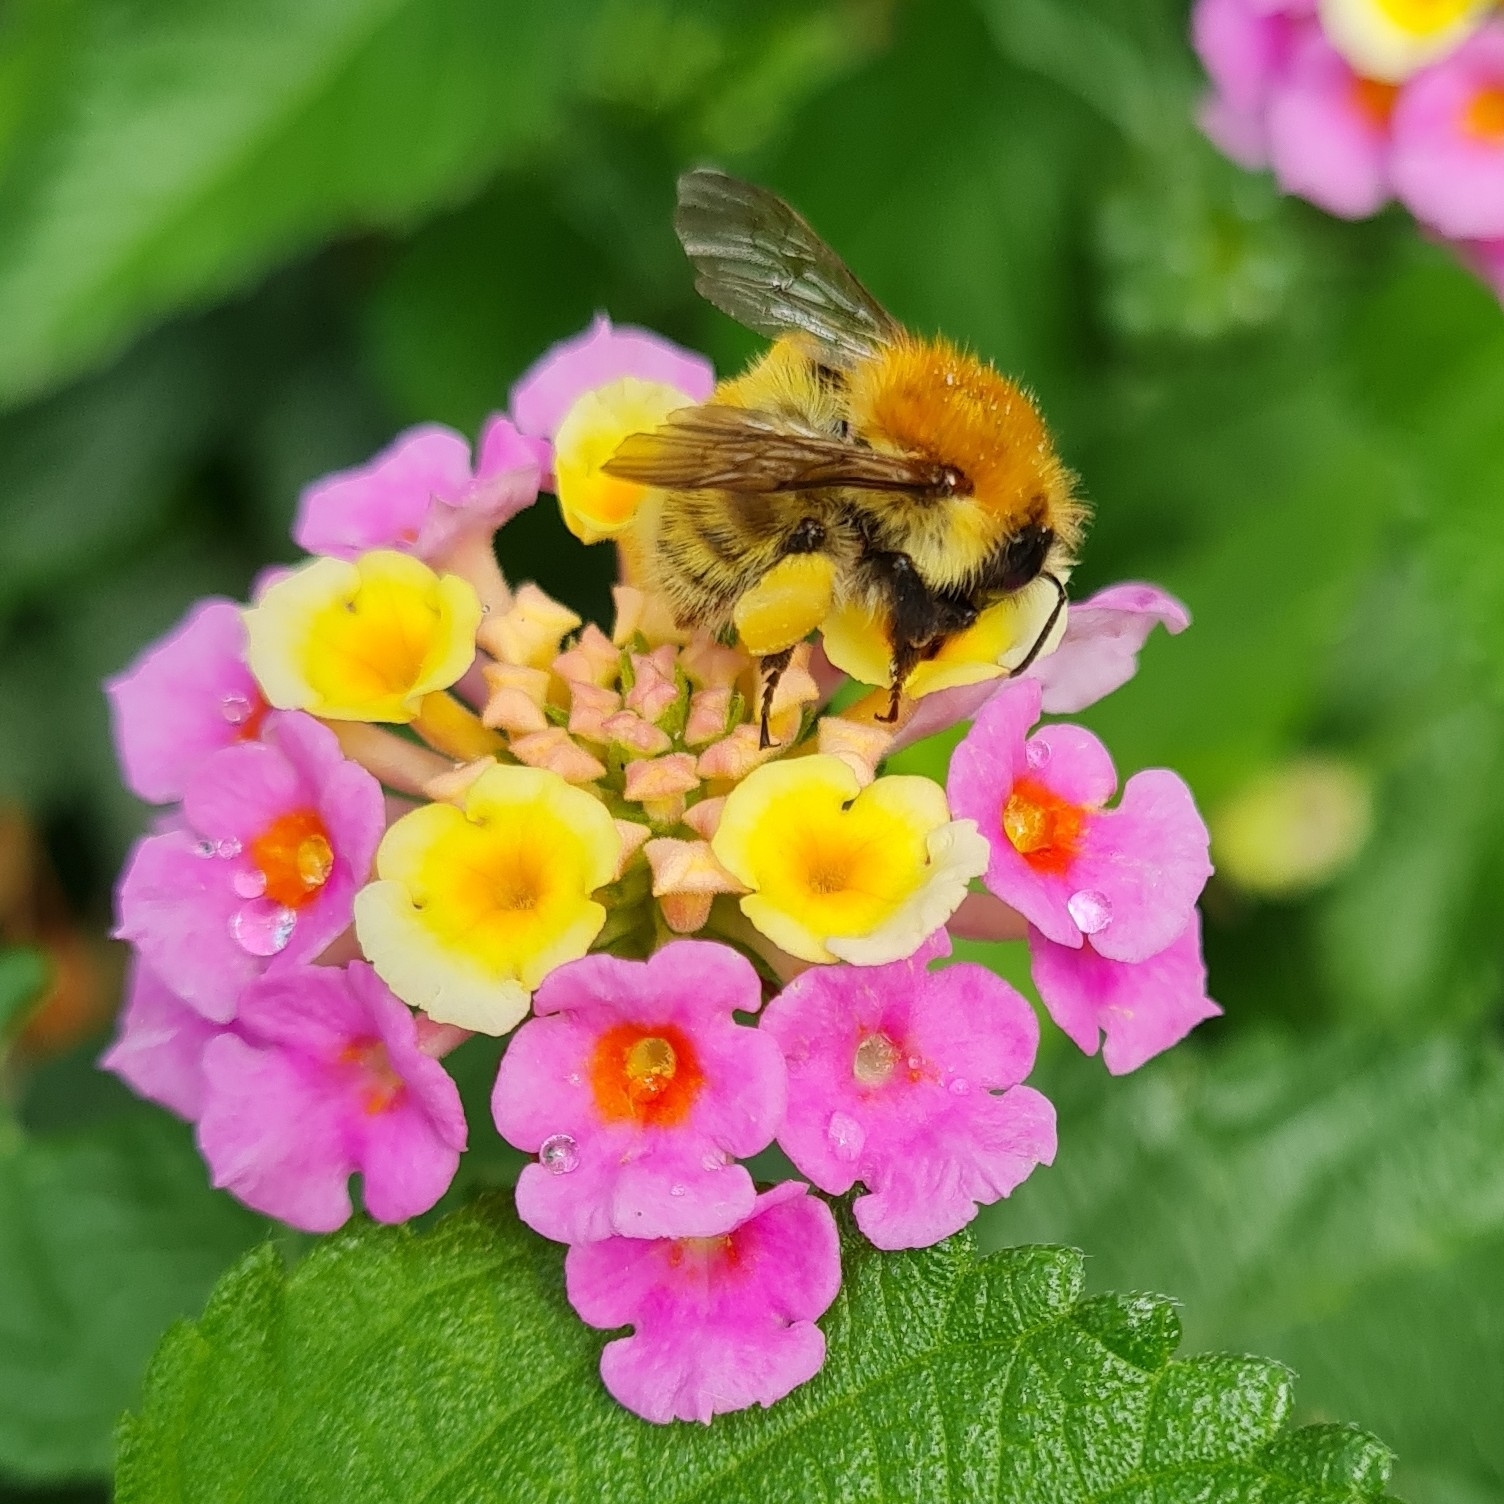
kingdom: Animalia
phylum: Arthropoda
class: Insecta
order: Hymenoptera
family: Apidae
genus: Bombus
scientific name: Bombus pascuorum
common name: Common carder bee
